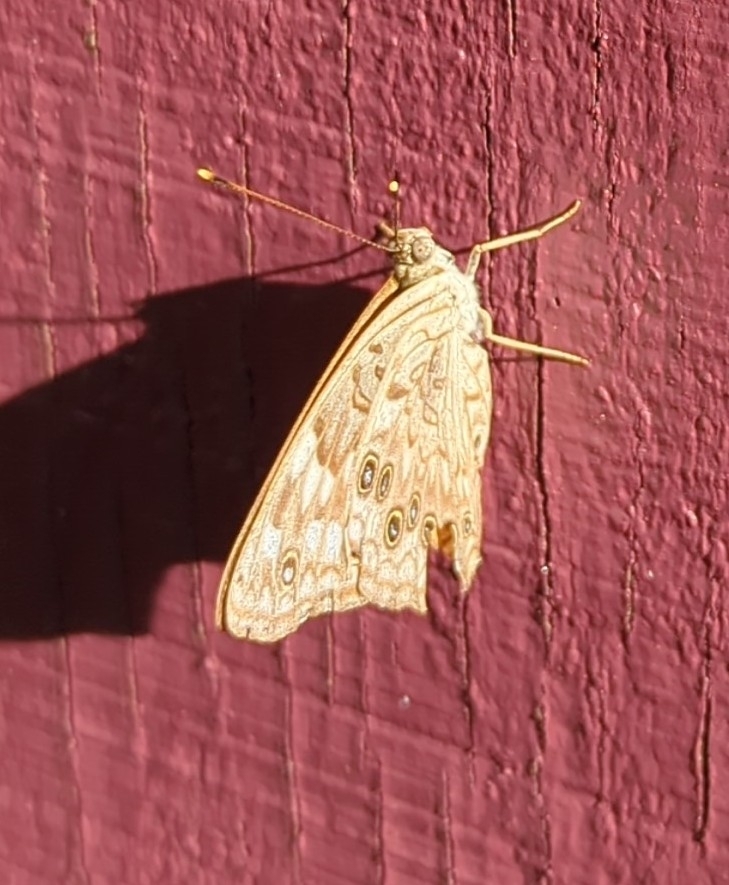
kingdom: Animalia
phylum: Arthropoda
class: Insecta
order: Lepidoptera
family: Nymphalidae
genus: Asterocampa
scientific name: Asterocampa celtis
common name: Hackberry emperor
